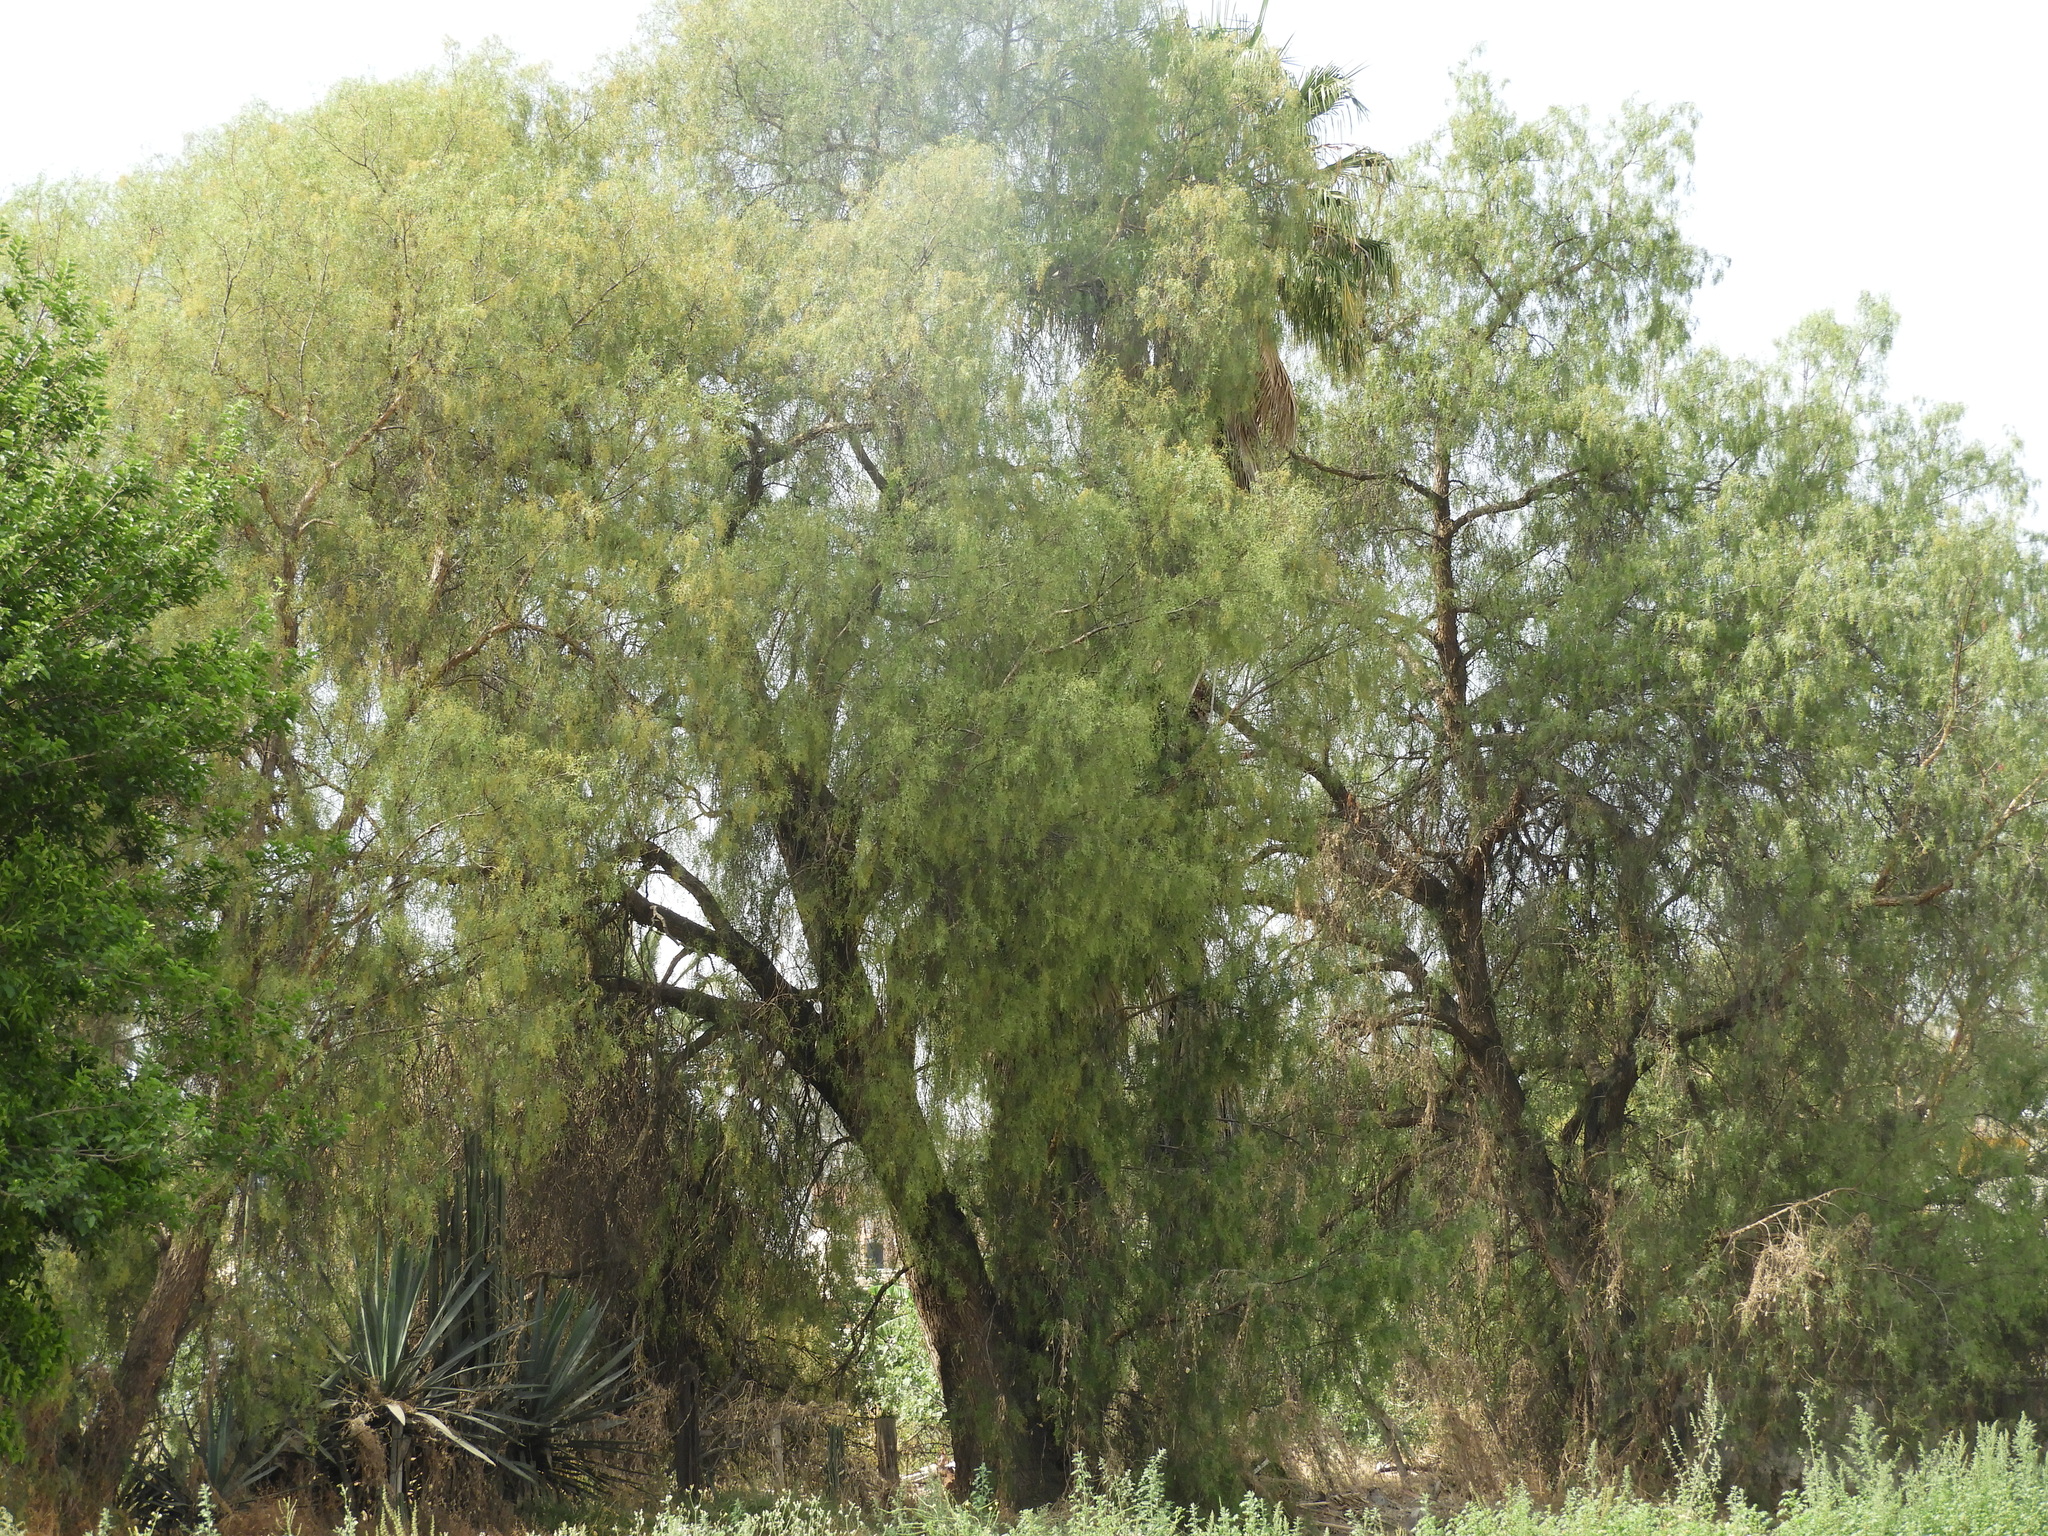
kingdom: Plantae
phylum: Tracheophyta
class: Pinopsida
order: Pinales
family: Cupressaceae
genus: Taxodium
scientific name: Taxodium mucronatum
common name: Montezume bald cypress
